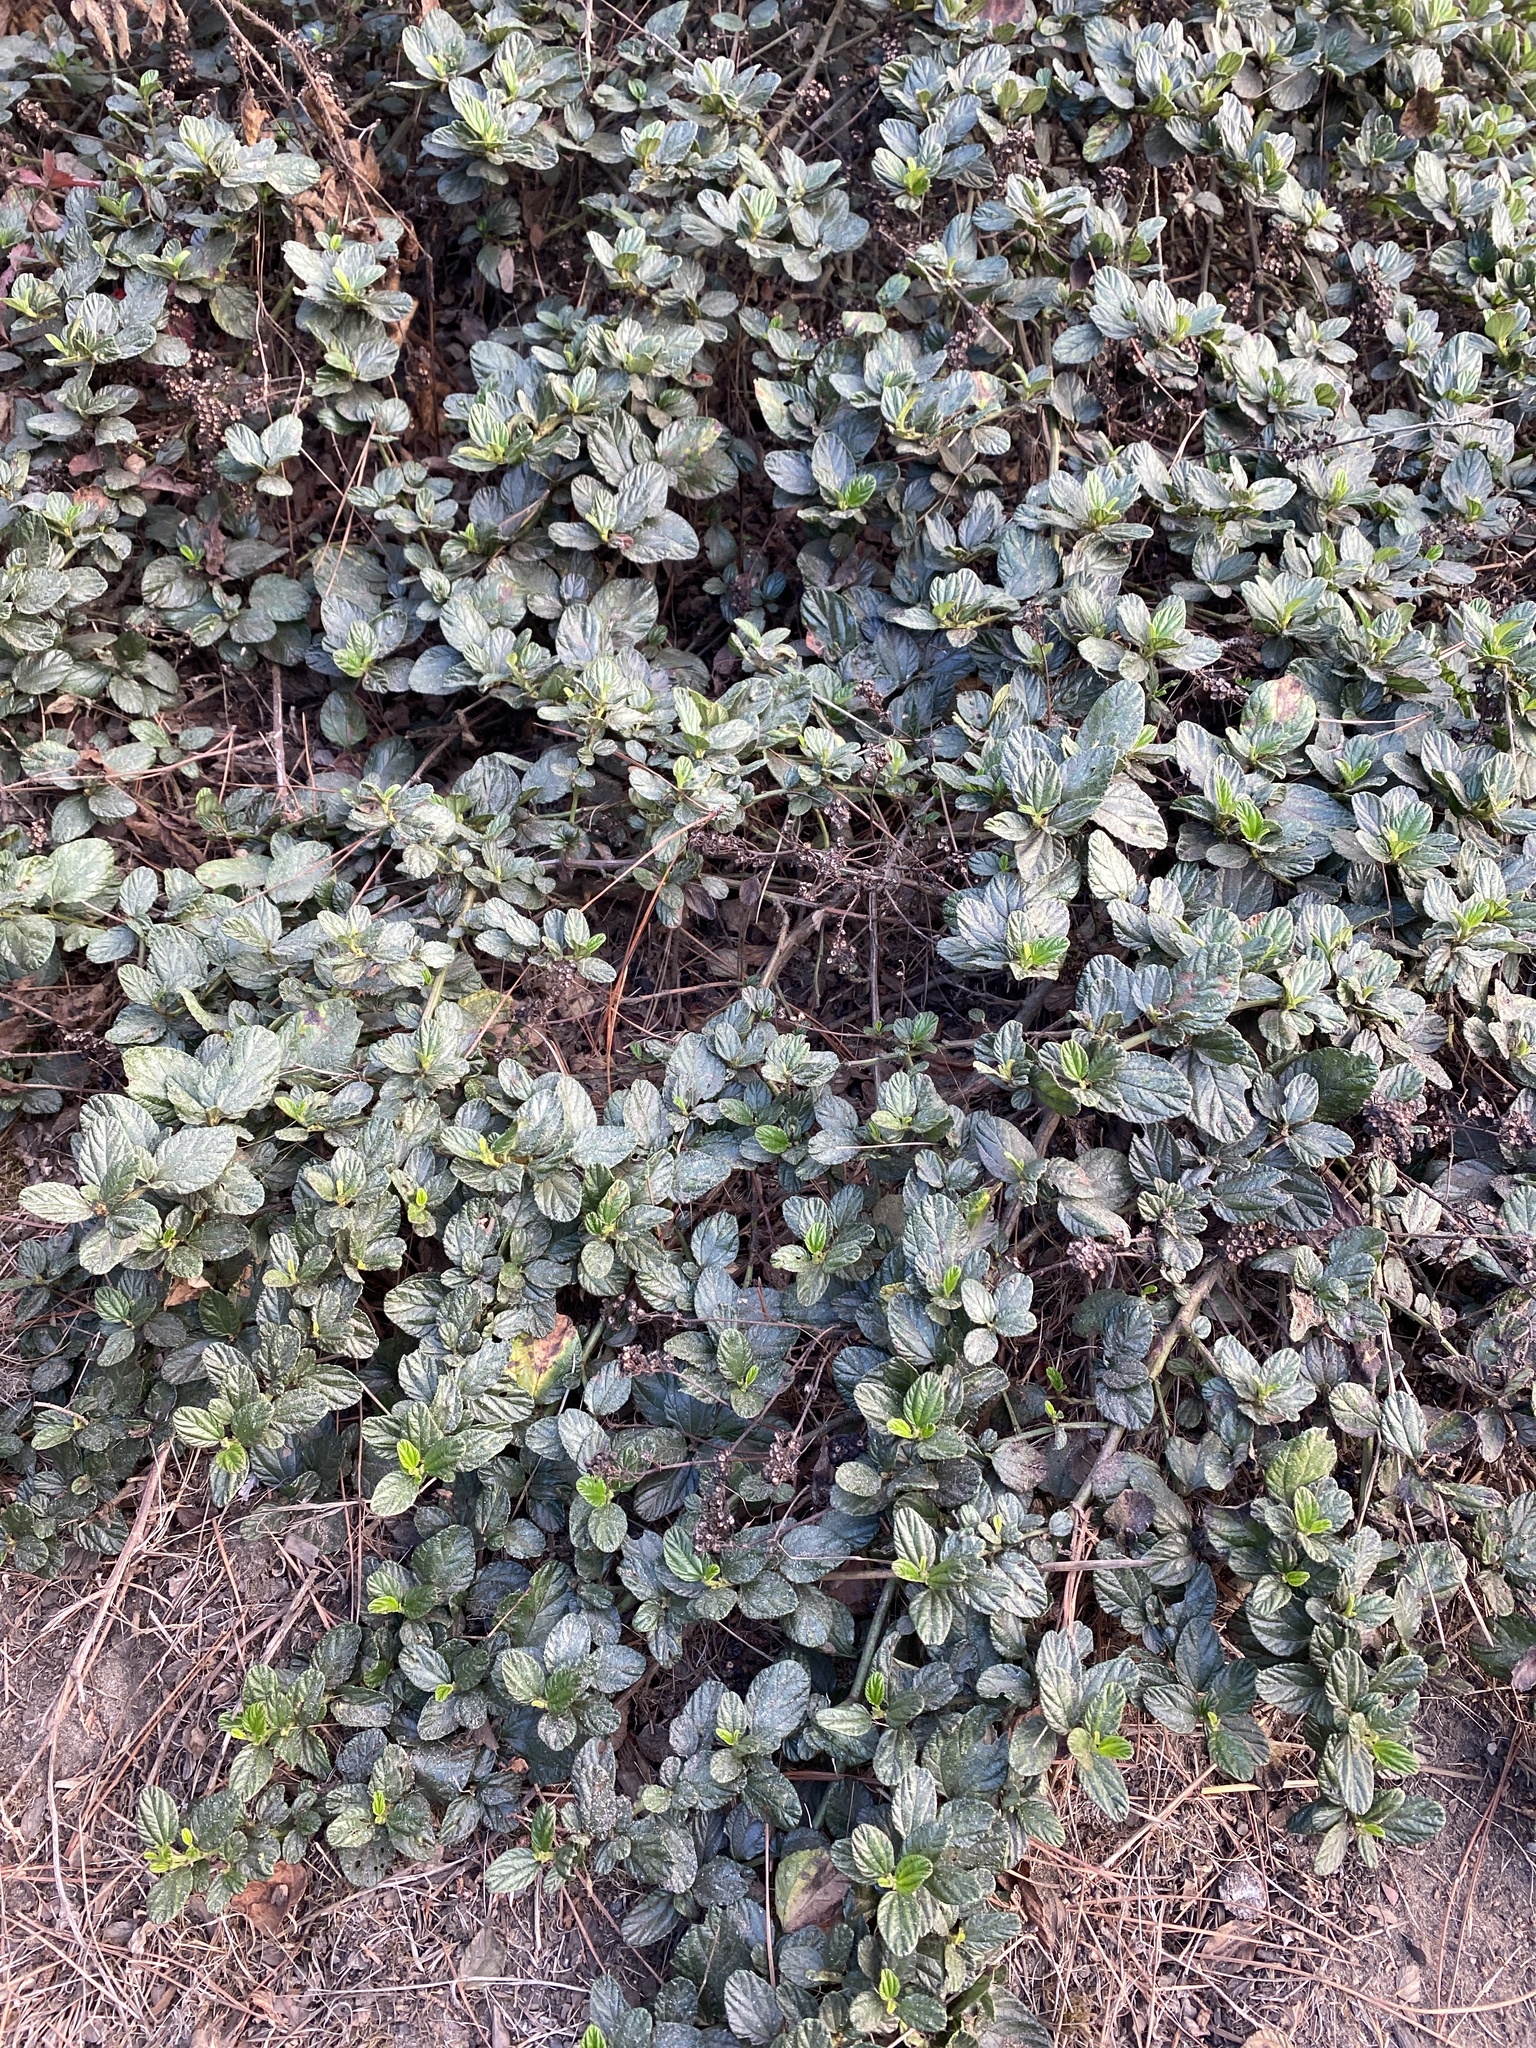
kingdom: Plantae
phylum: Tracheophyta
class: Magnoliopsida
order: Rosales
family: Rhamnaceae
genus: Ceanothus
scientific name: Ceanothus thyrsiflorus
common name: California-lilac
